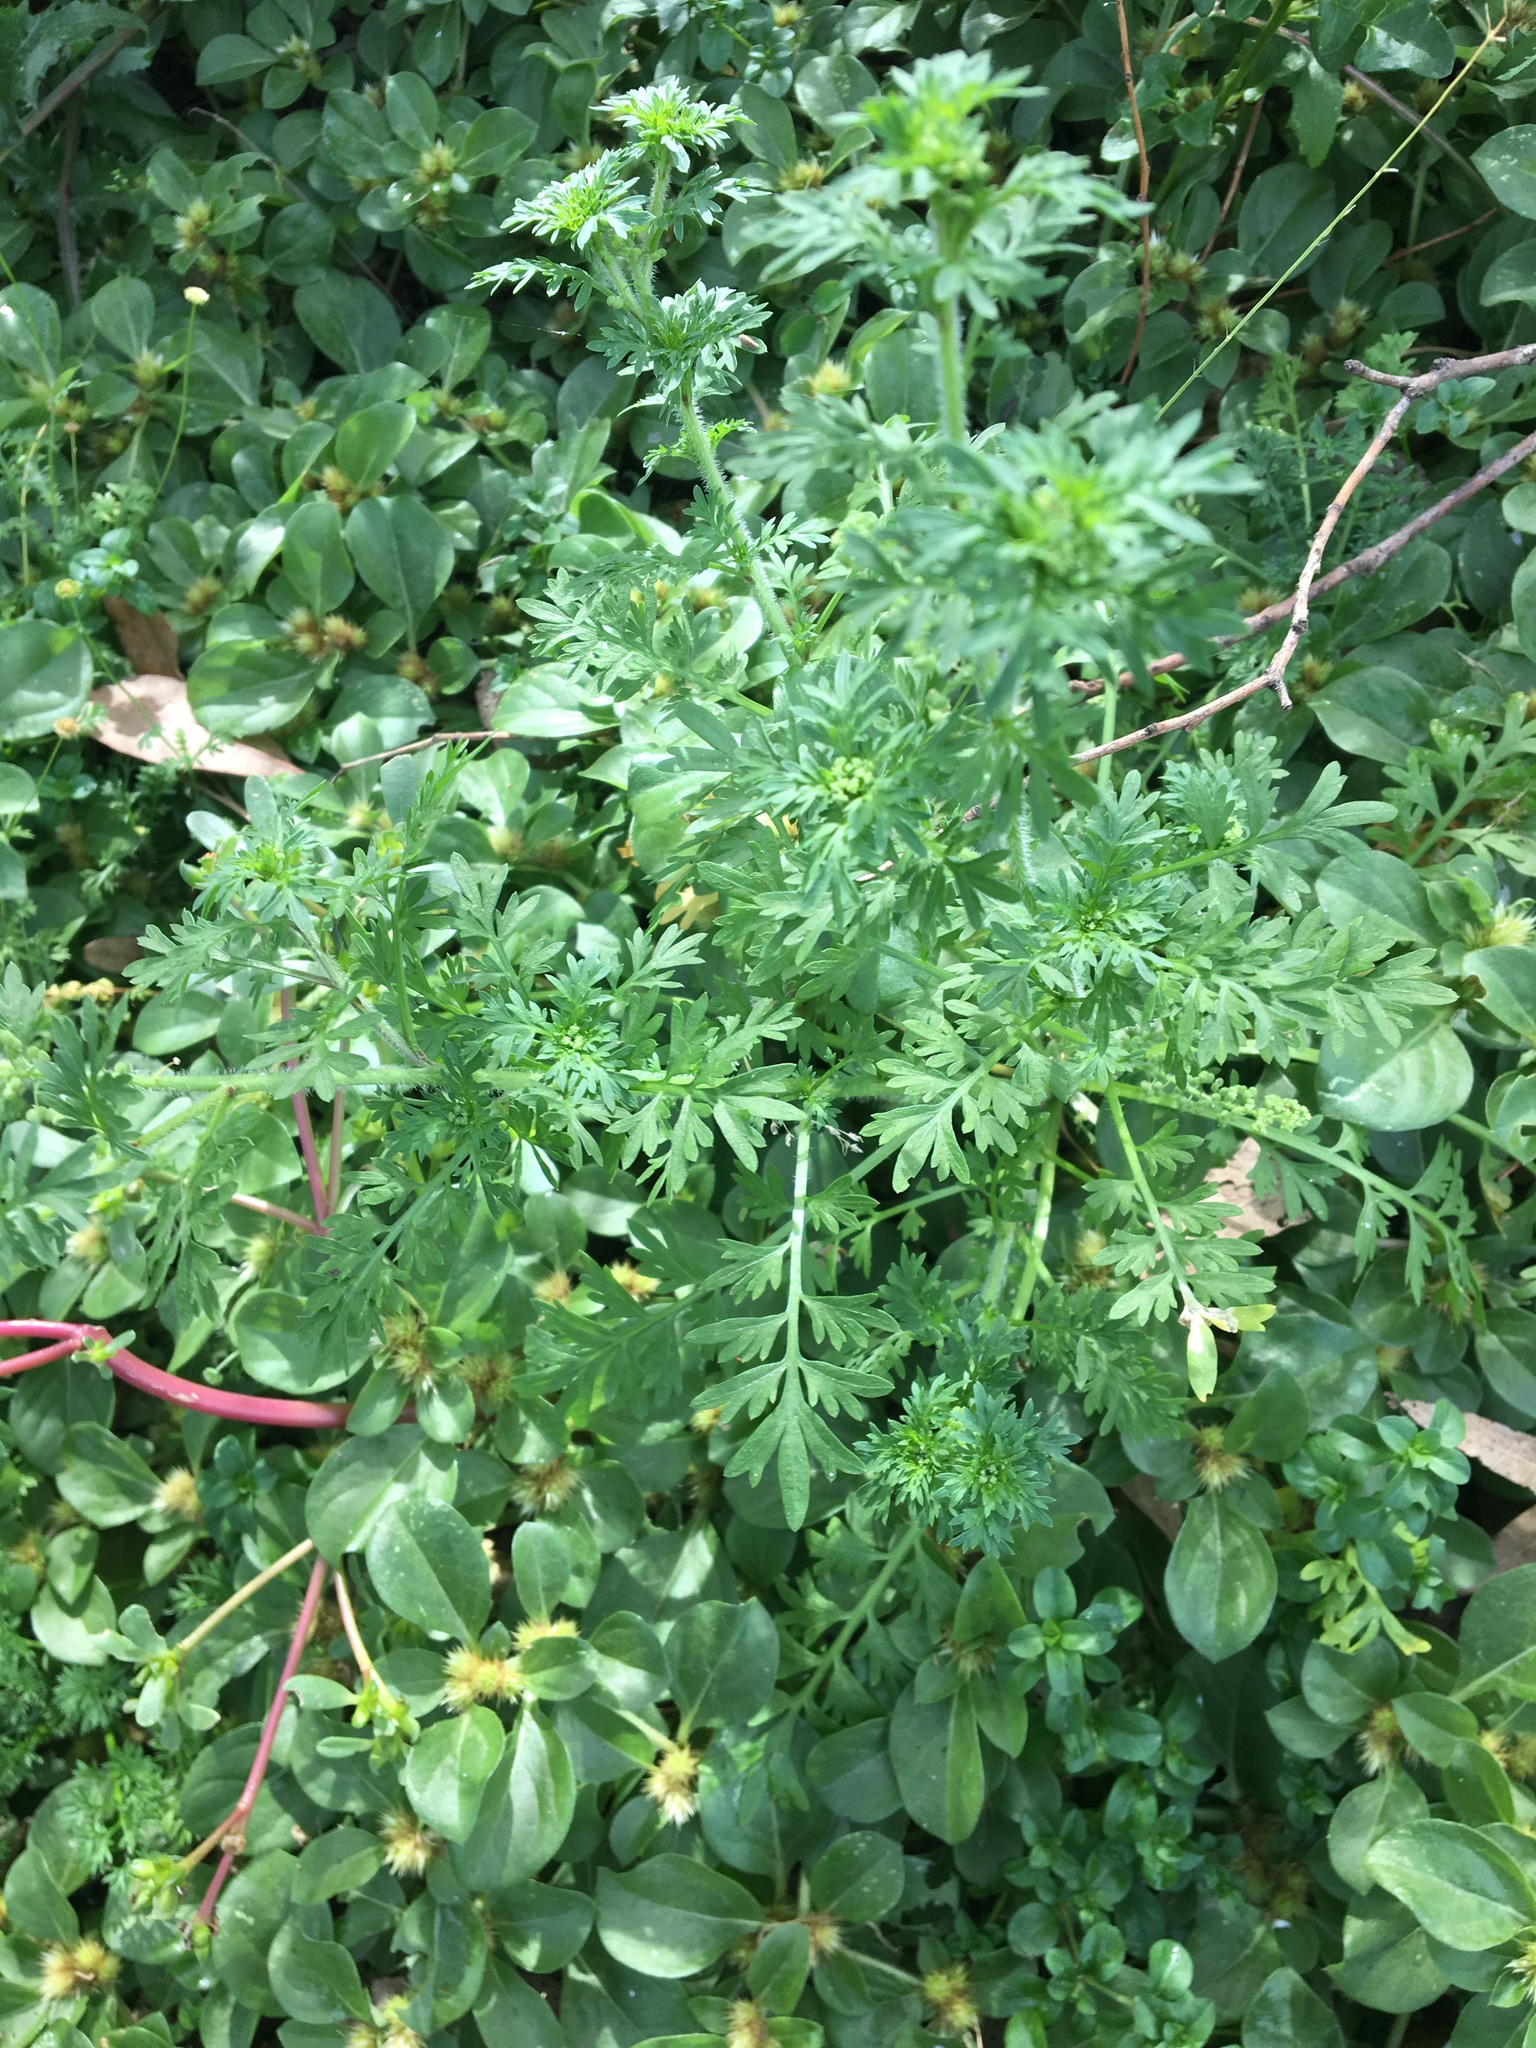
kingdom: Plantae
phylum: Tracheophyta
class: Magnoliopsida
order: Caryophyllales
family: Amaranthaceae
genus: Alternanthera
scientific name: Alternanthera pungens
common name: Khakiweed
